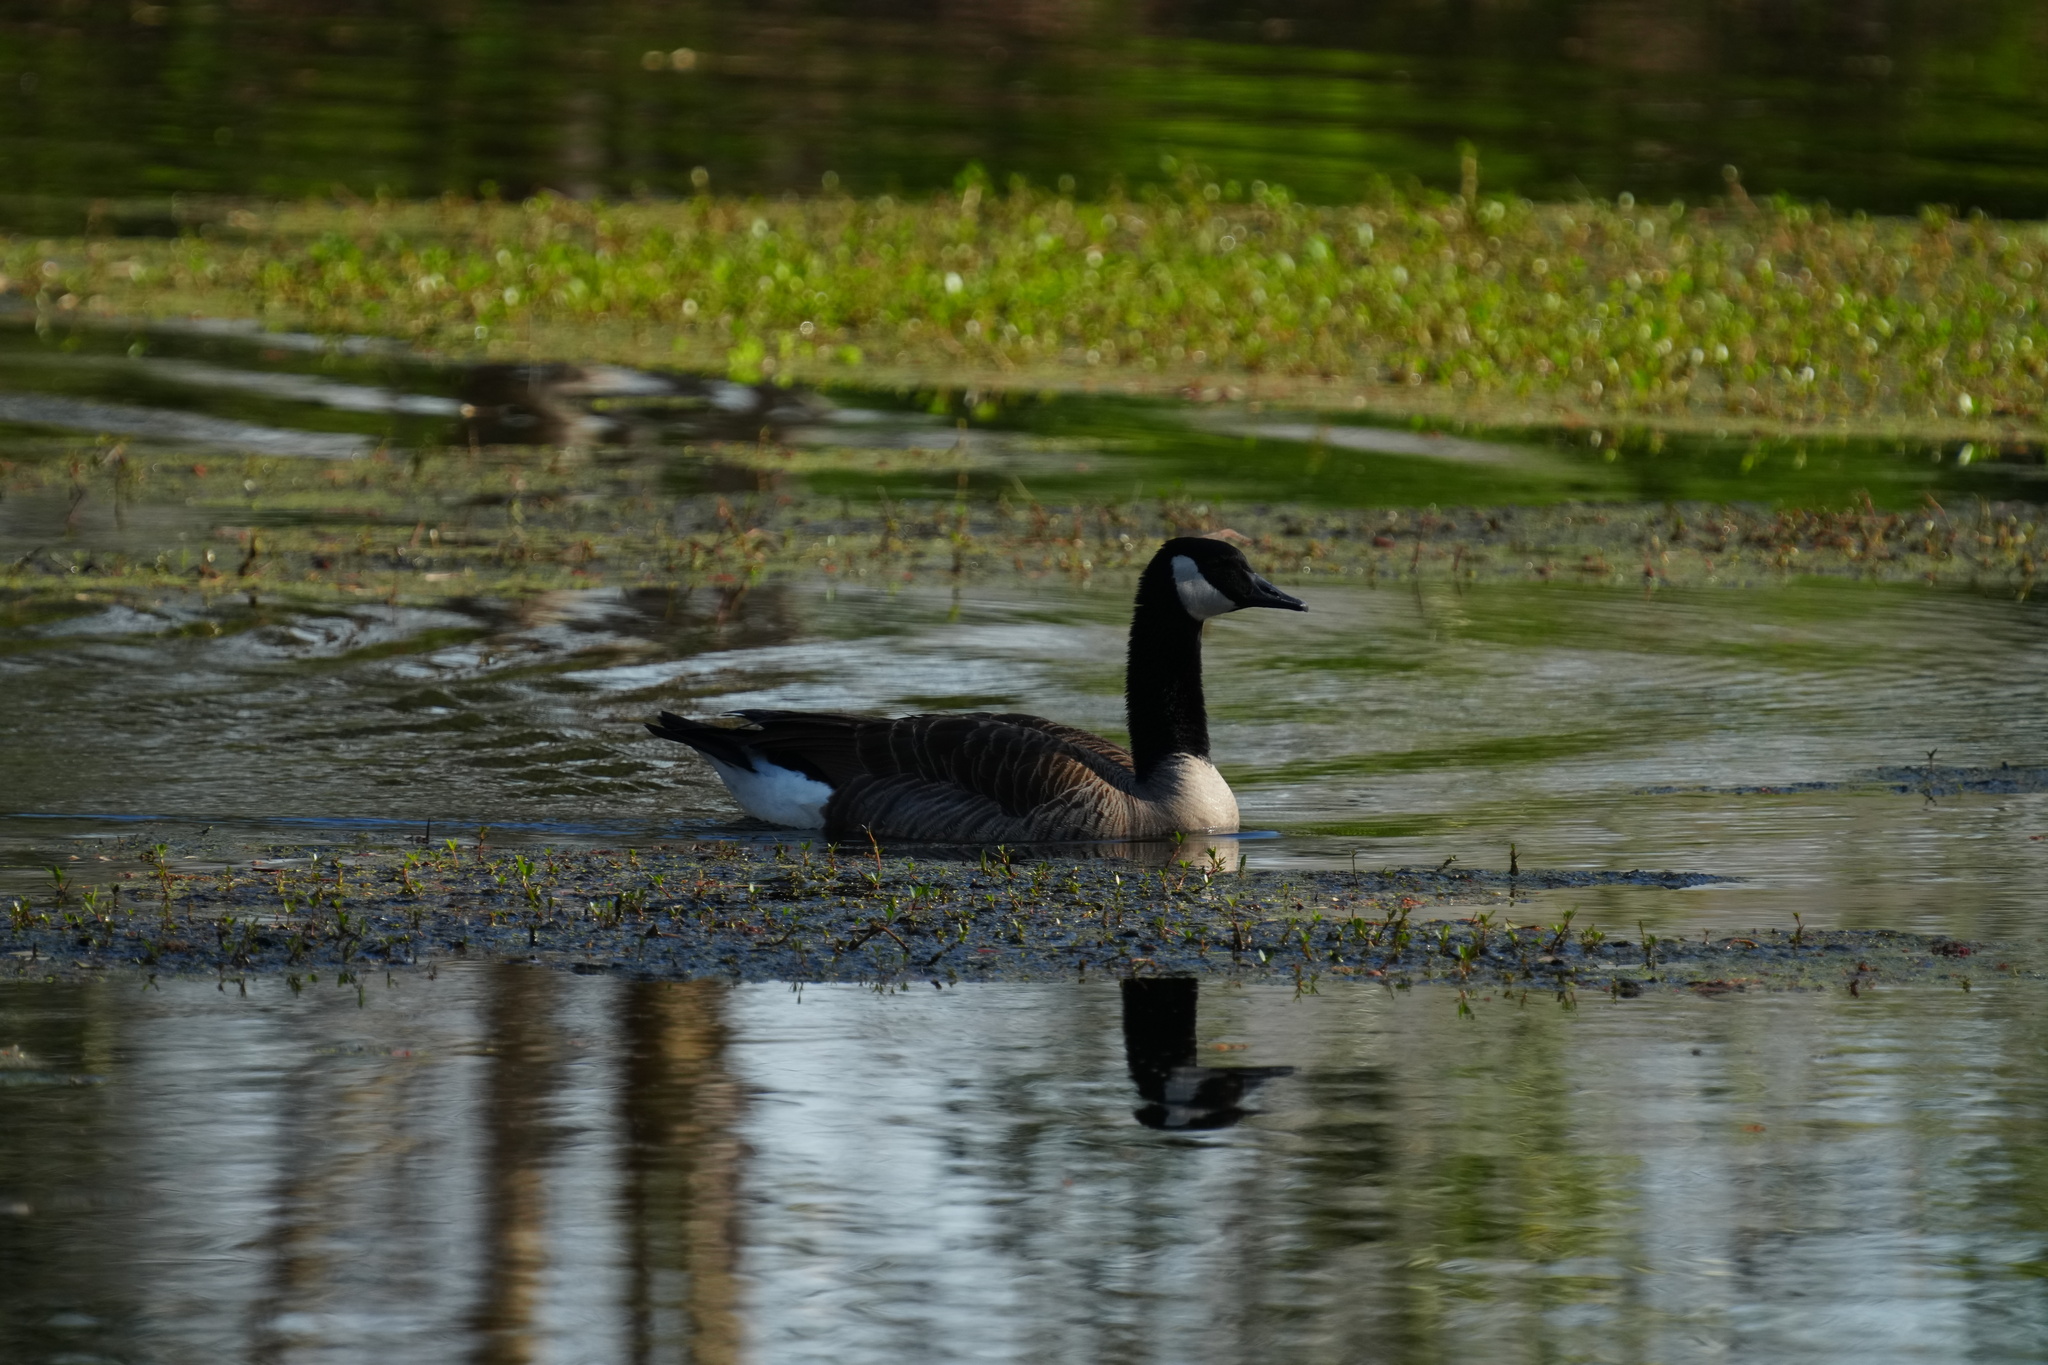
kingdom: Animalia
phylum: Chordata
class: Aves
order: Anseriformes
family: Anatidae
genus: Branta
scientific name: Branta canadensis
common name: Canada goose
